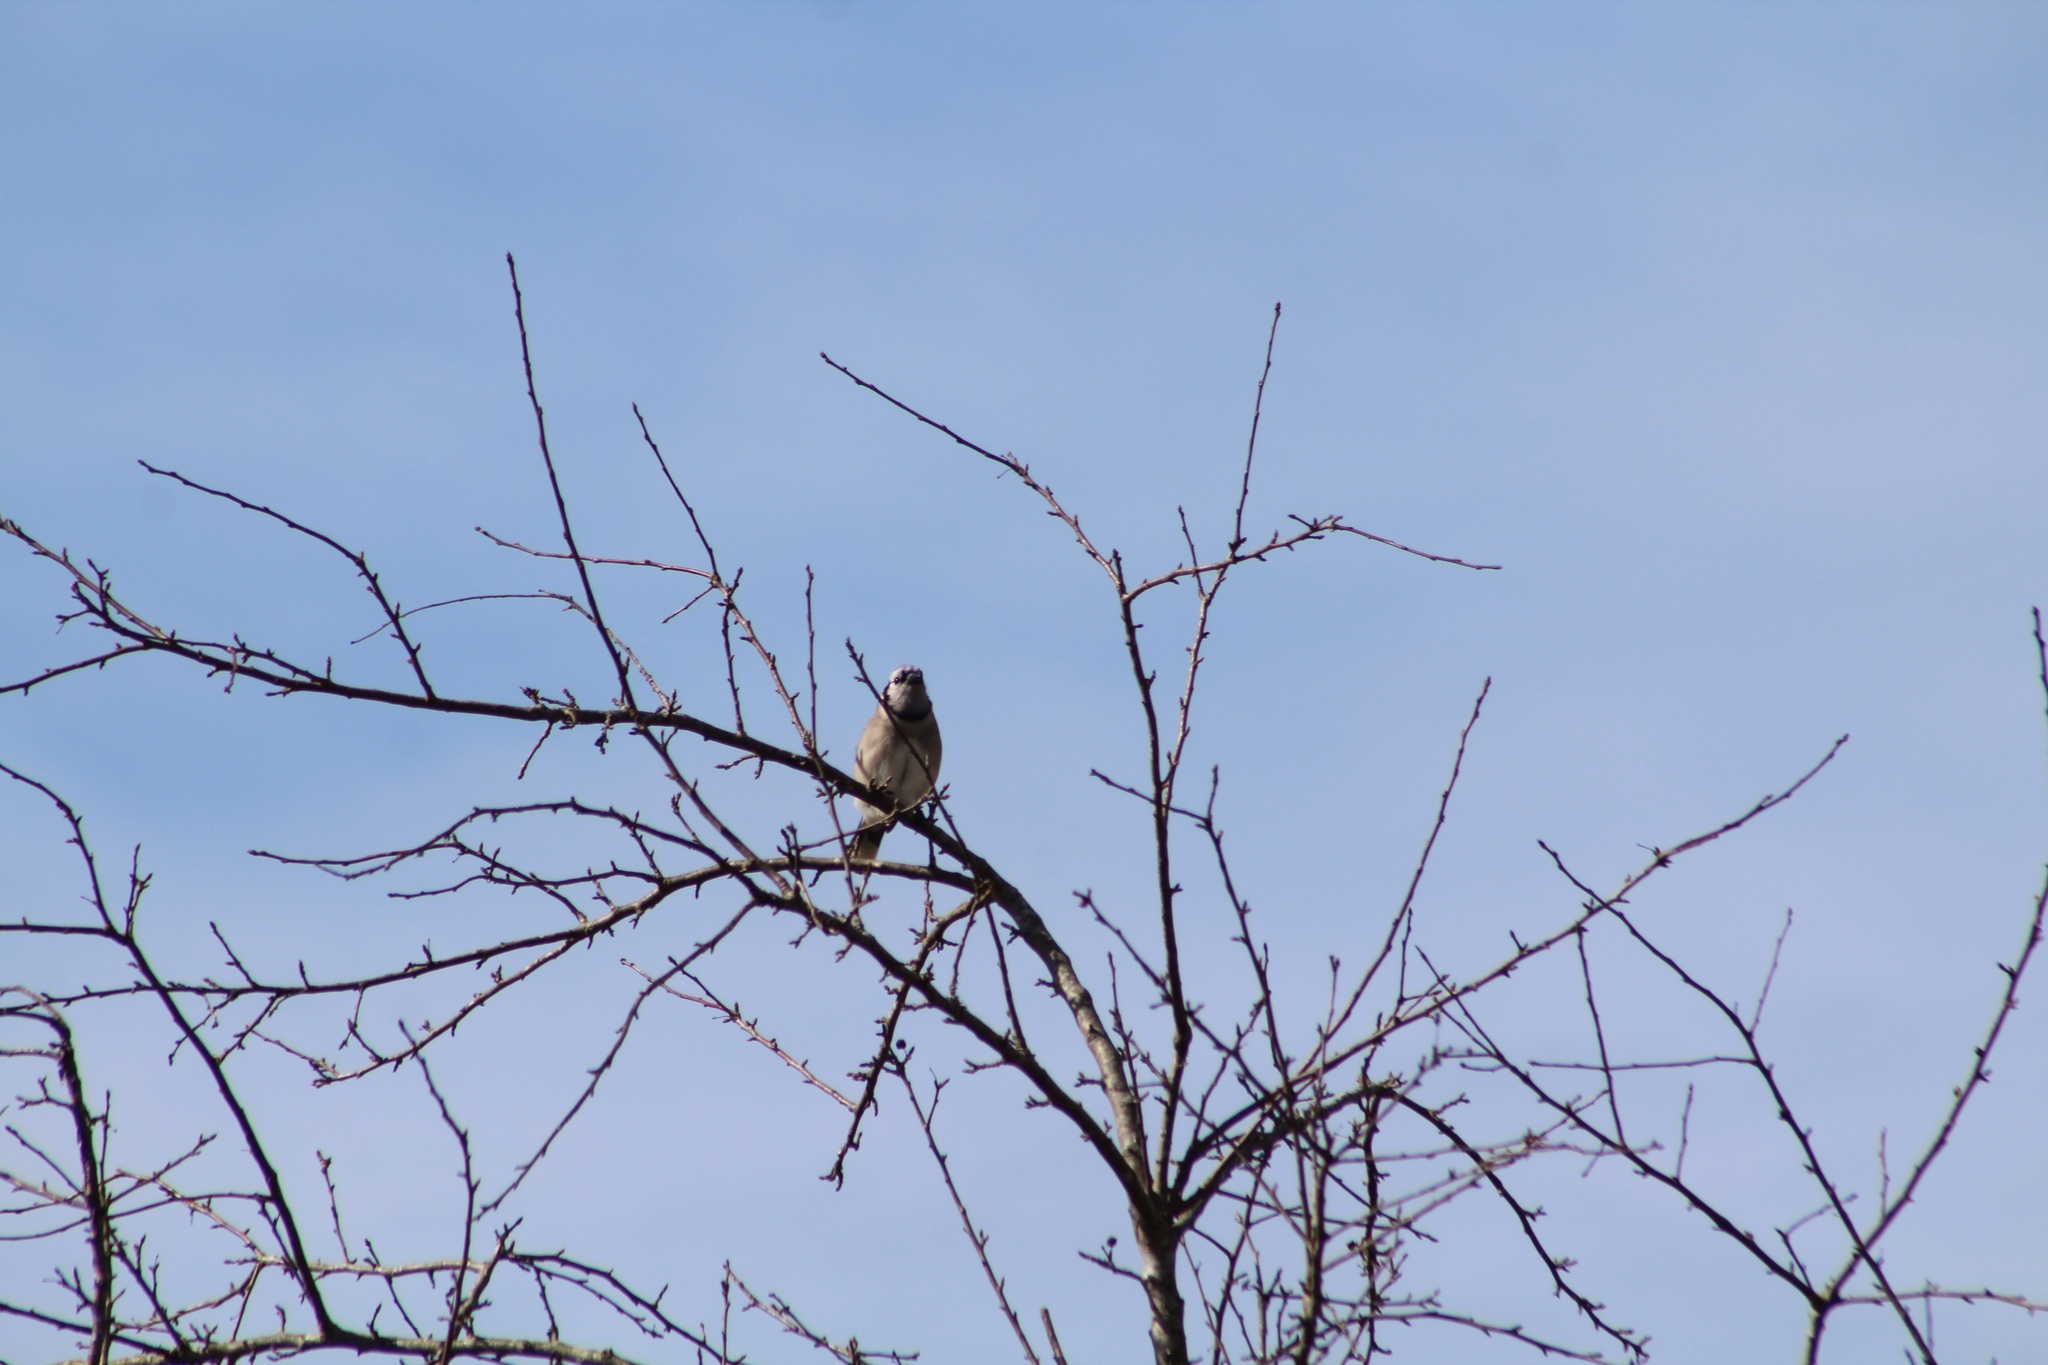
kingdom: Animalia
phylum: Chordata
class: Aves
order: Passeriformes
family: Corvidae
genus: Cyanocitta
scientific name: Cyanocitta cristata
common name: Blue jay
